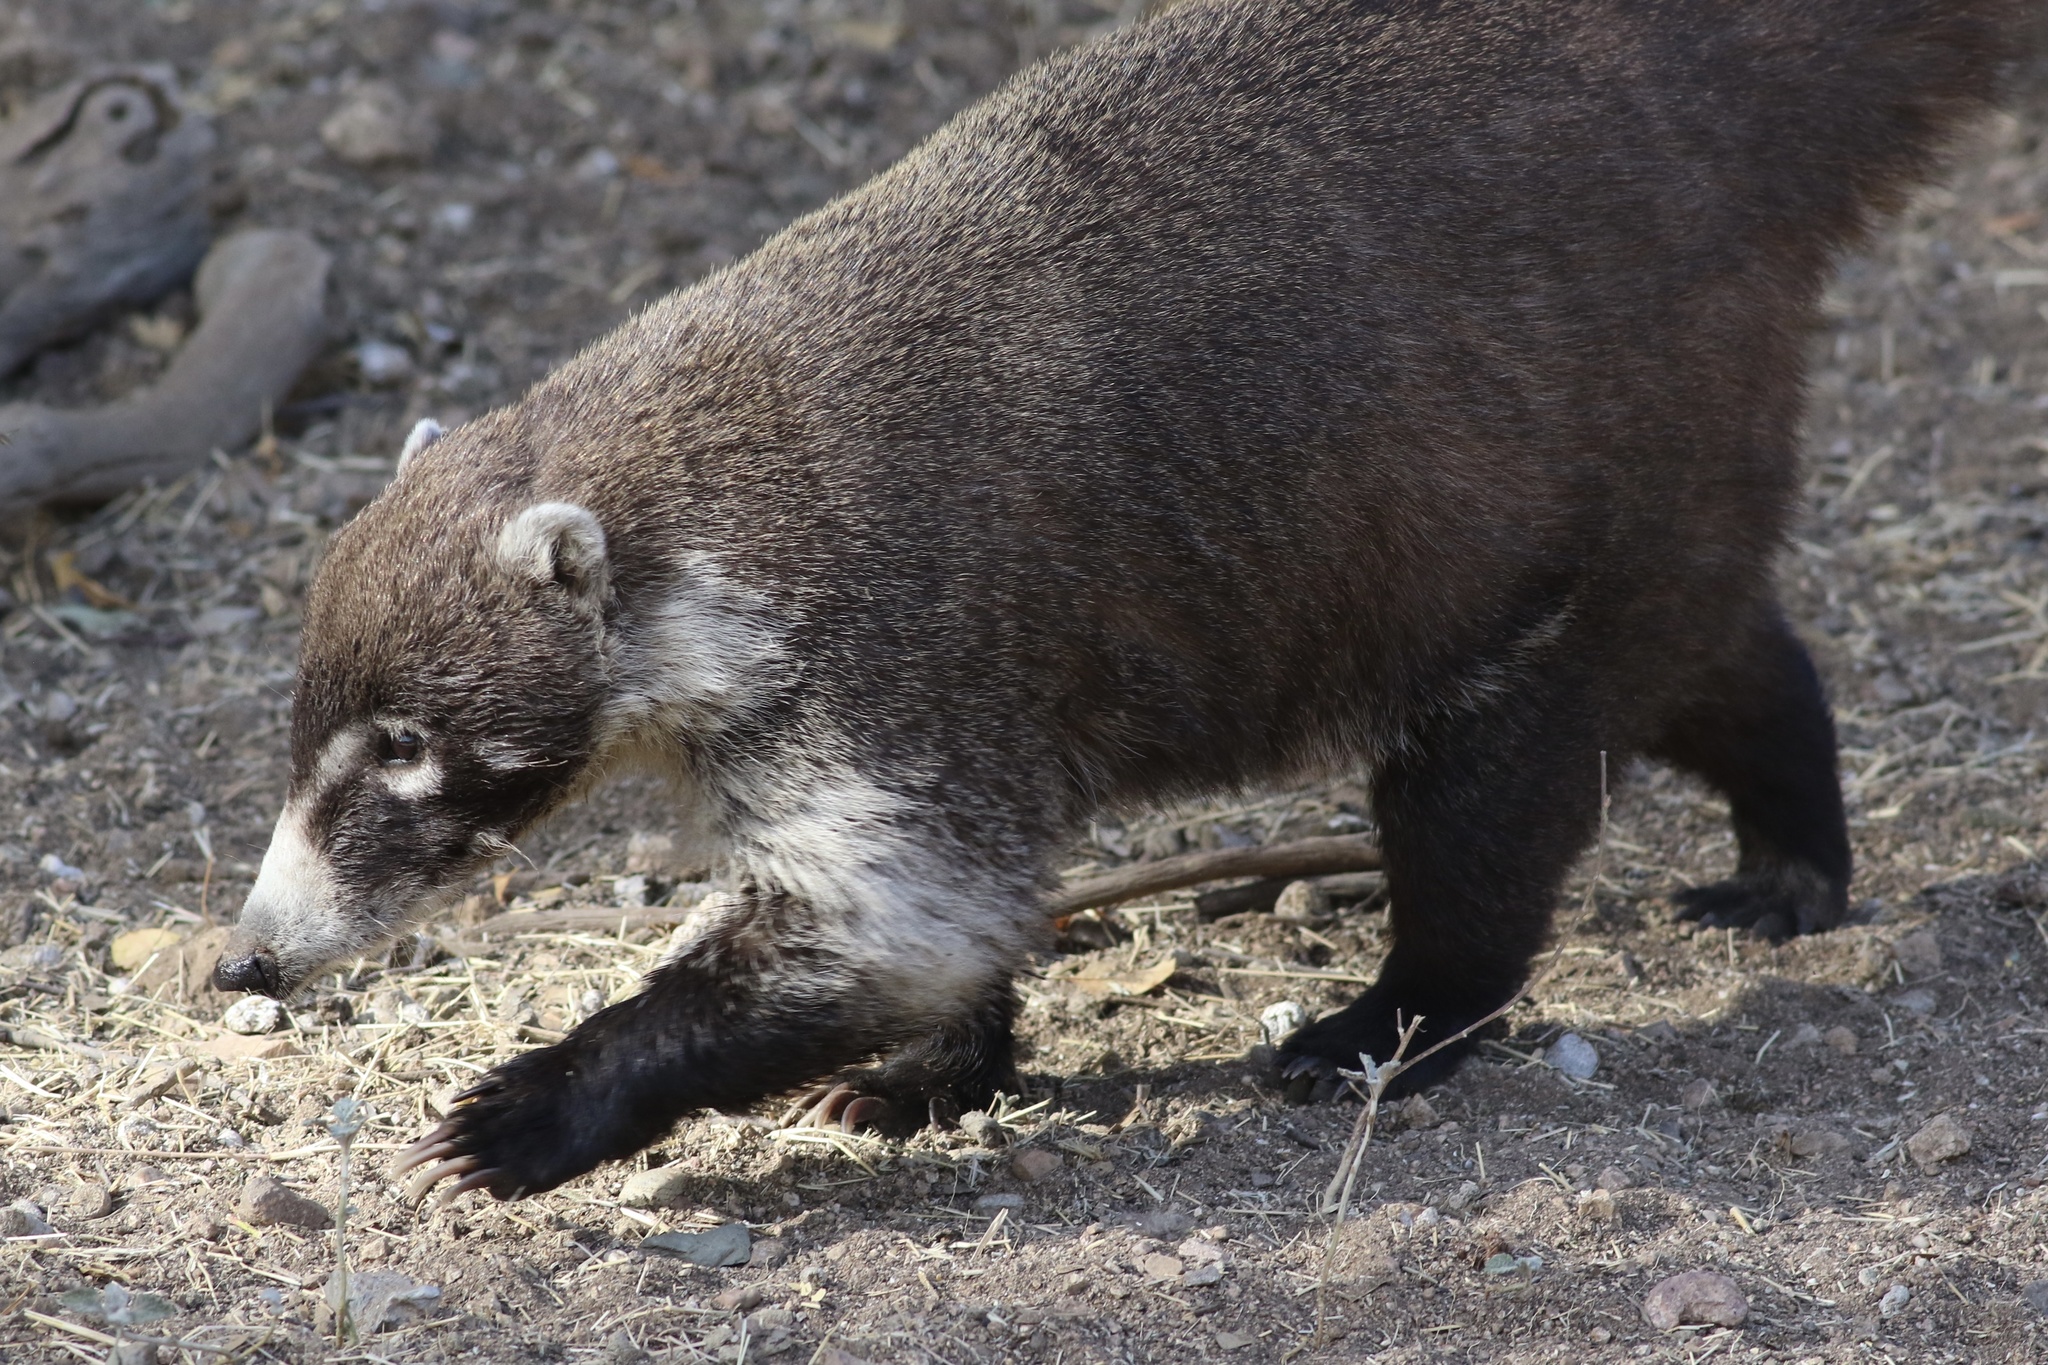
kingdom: Animalia
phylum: Chordata
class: Mammalia
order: Carnivora
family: Procyonidae
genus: Nasua
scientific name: Nasua narica
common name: White-nosed coati
